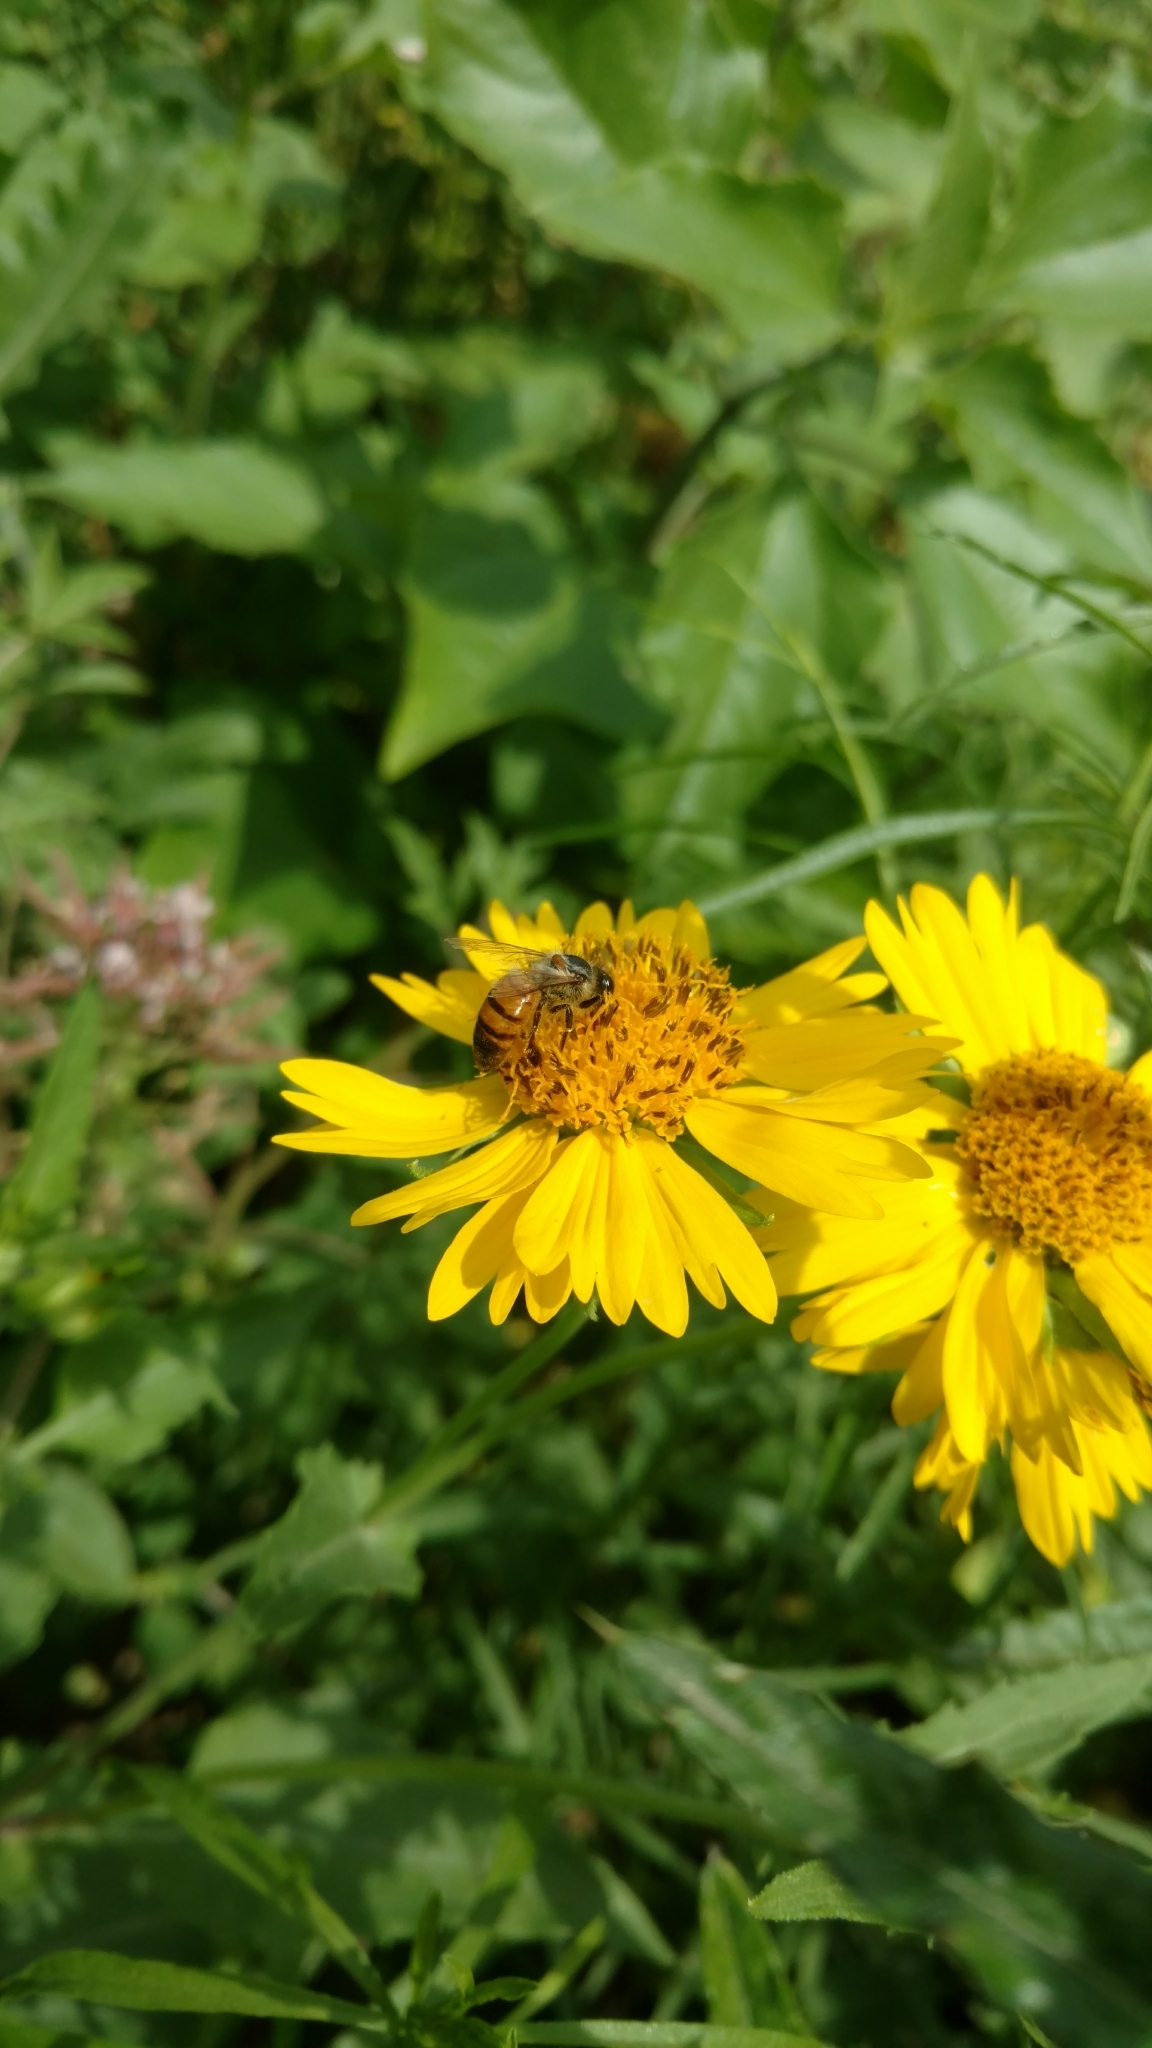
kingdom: Animalia
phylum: Arthropoda
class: Insecta
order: Hymenoptera
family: Apidae
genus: Apis
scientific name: Apis mellifera
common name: Honey bee
